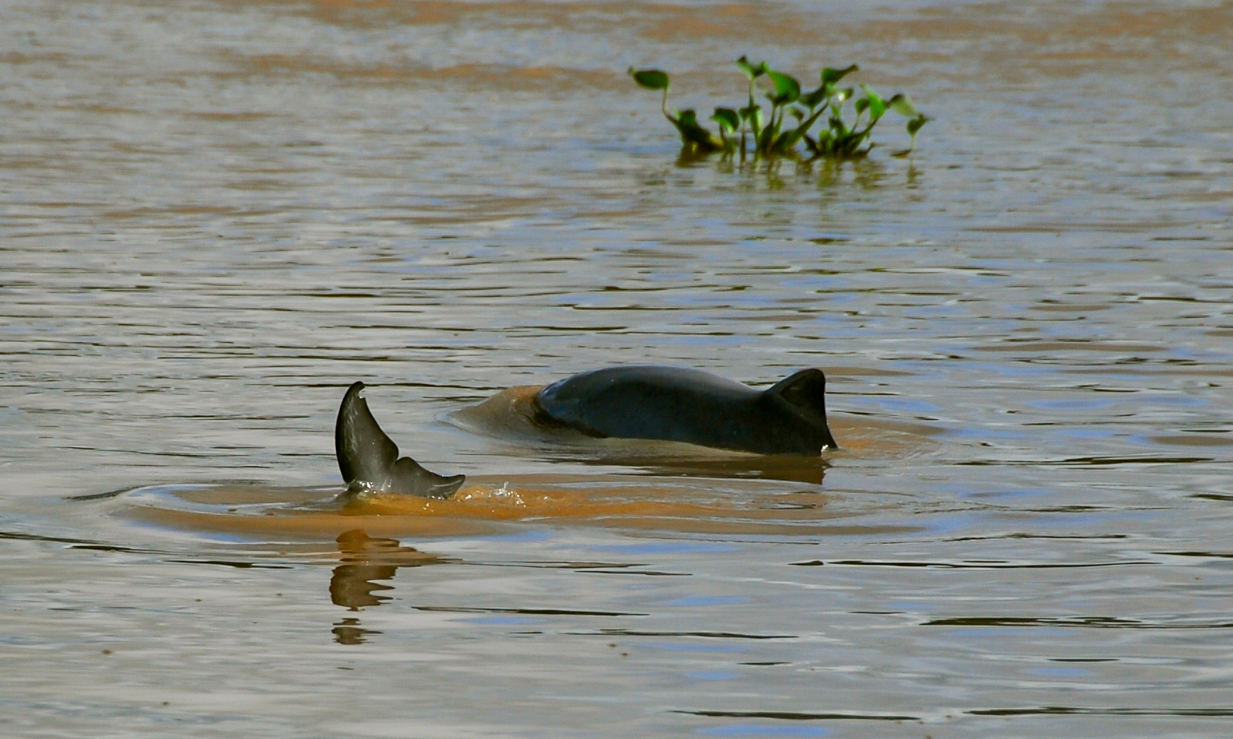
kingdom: Animalia
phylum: Chordata
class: Mammalia
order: Cetacea
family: Delphinidae
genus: Sotalia
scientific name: Sotalia fluviatilis
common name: Tucuxi
